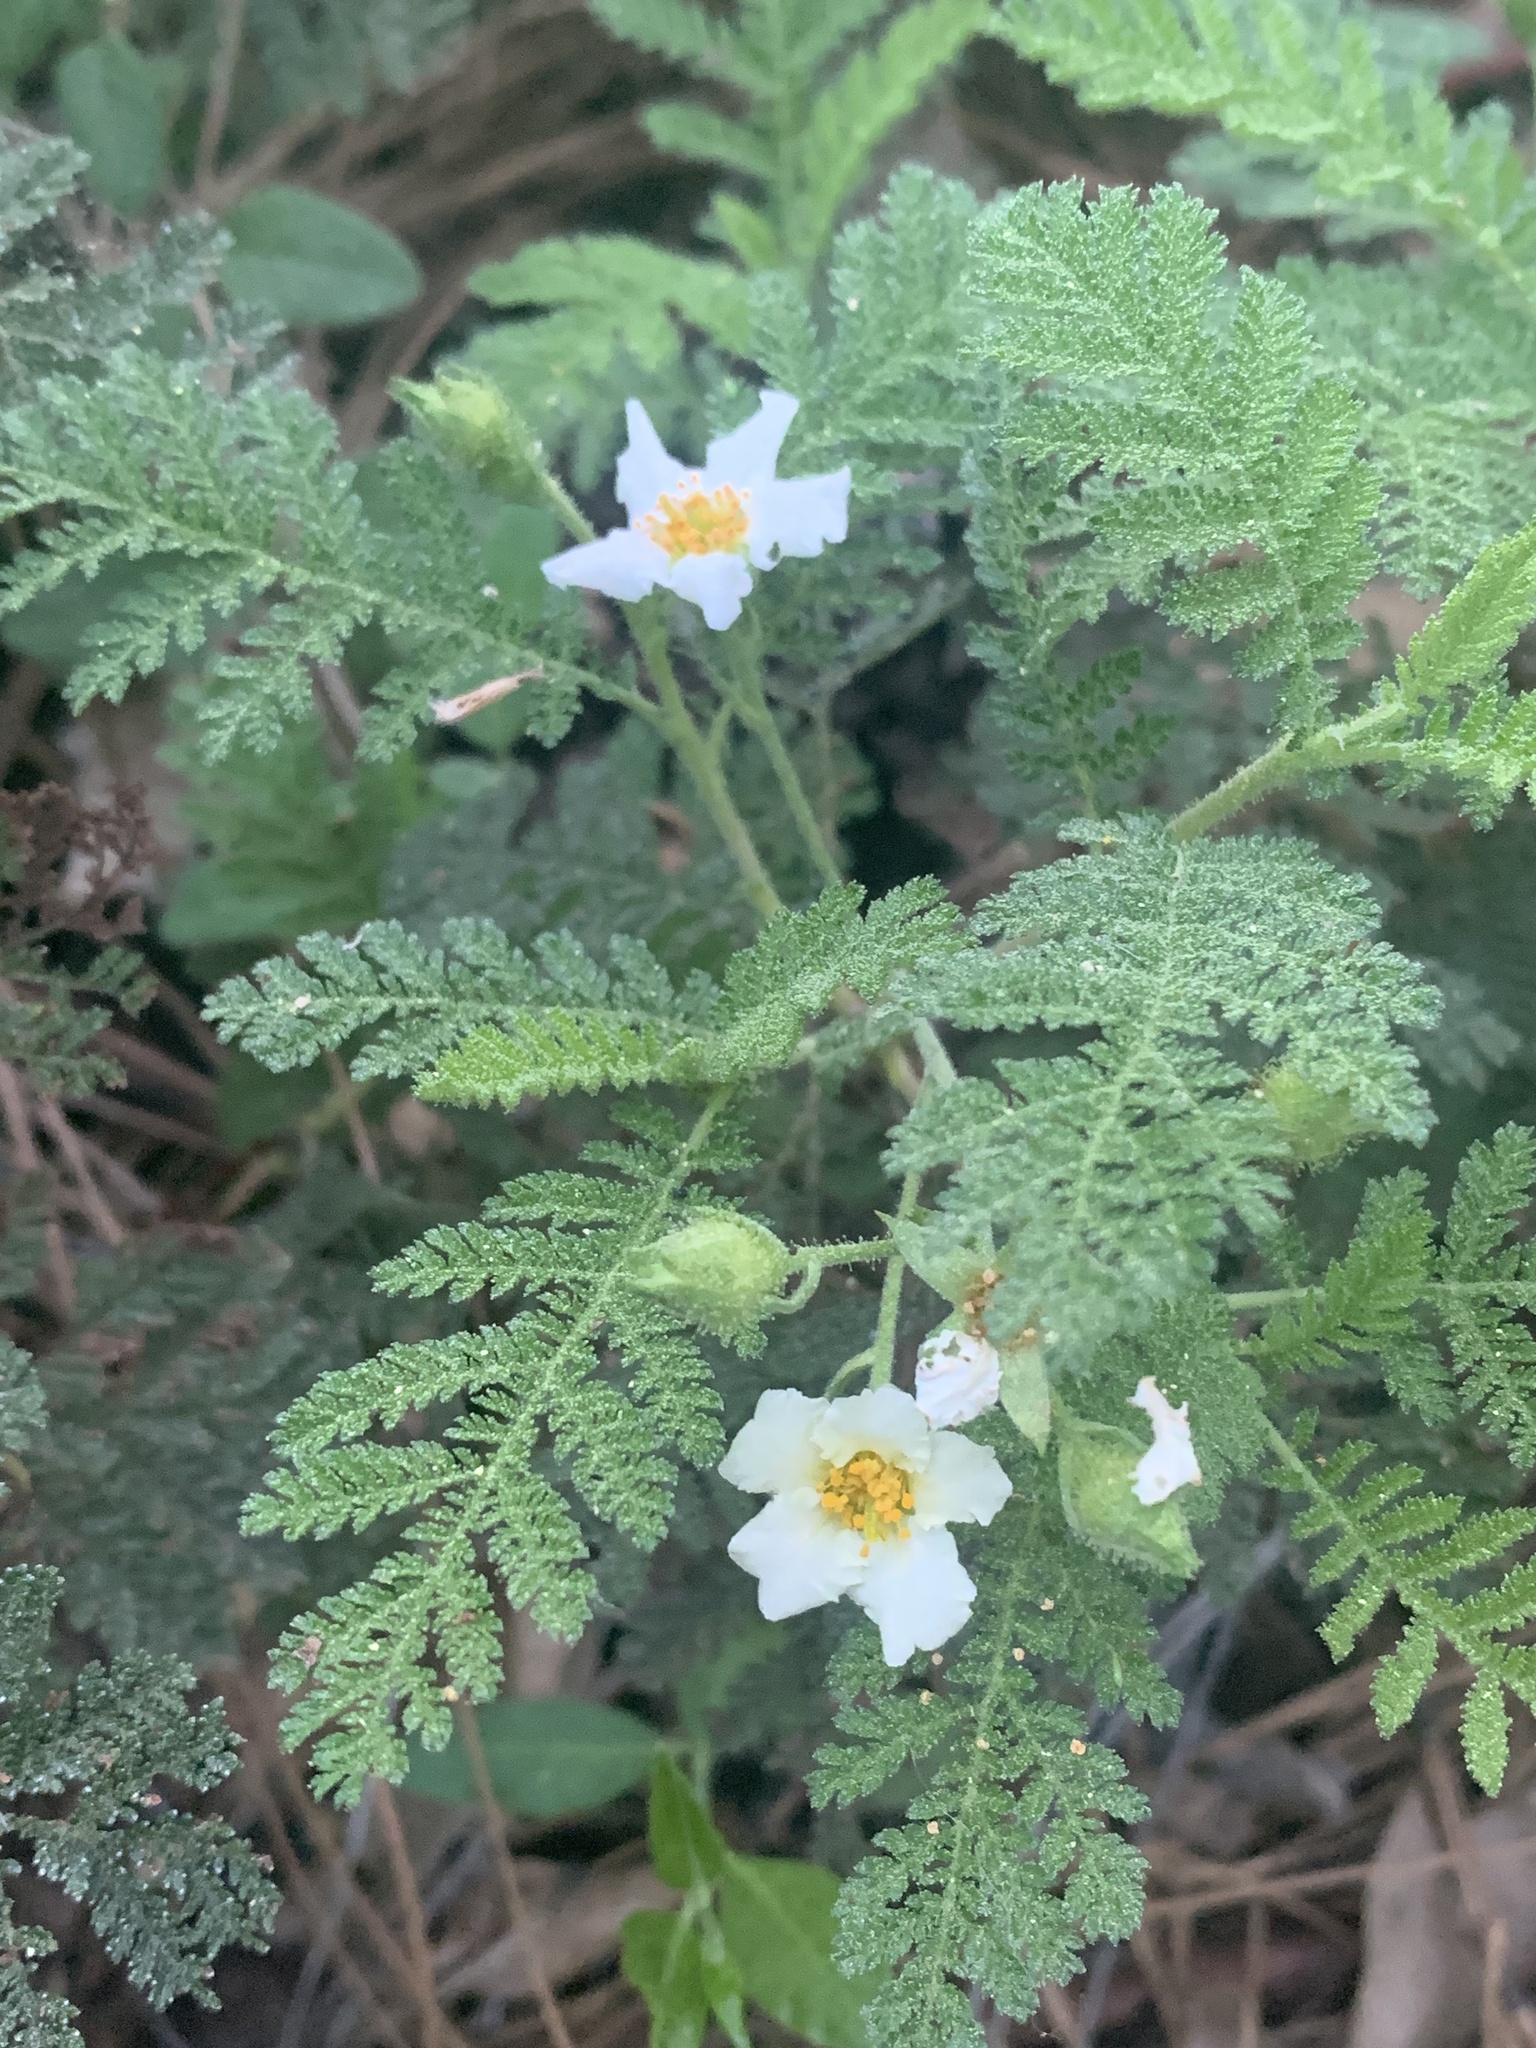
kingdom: Plantae
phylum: Tracheophyta
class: Magnoliopsida
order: Rosales
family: Rosaceae
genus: Chamaebatia
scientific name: Chamaebatia foliolosa
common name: Mountain misery
